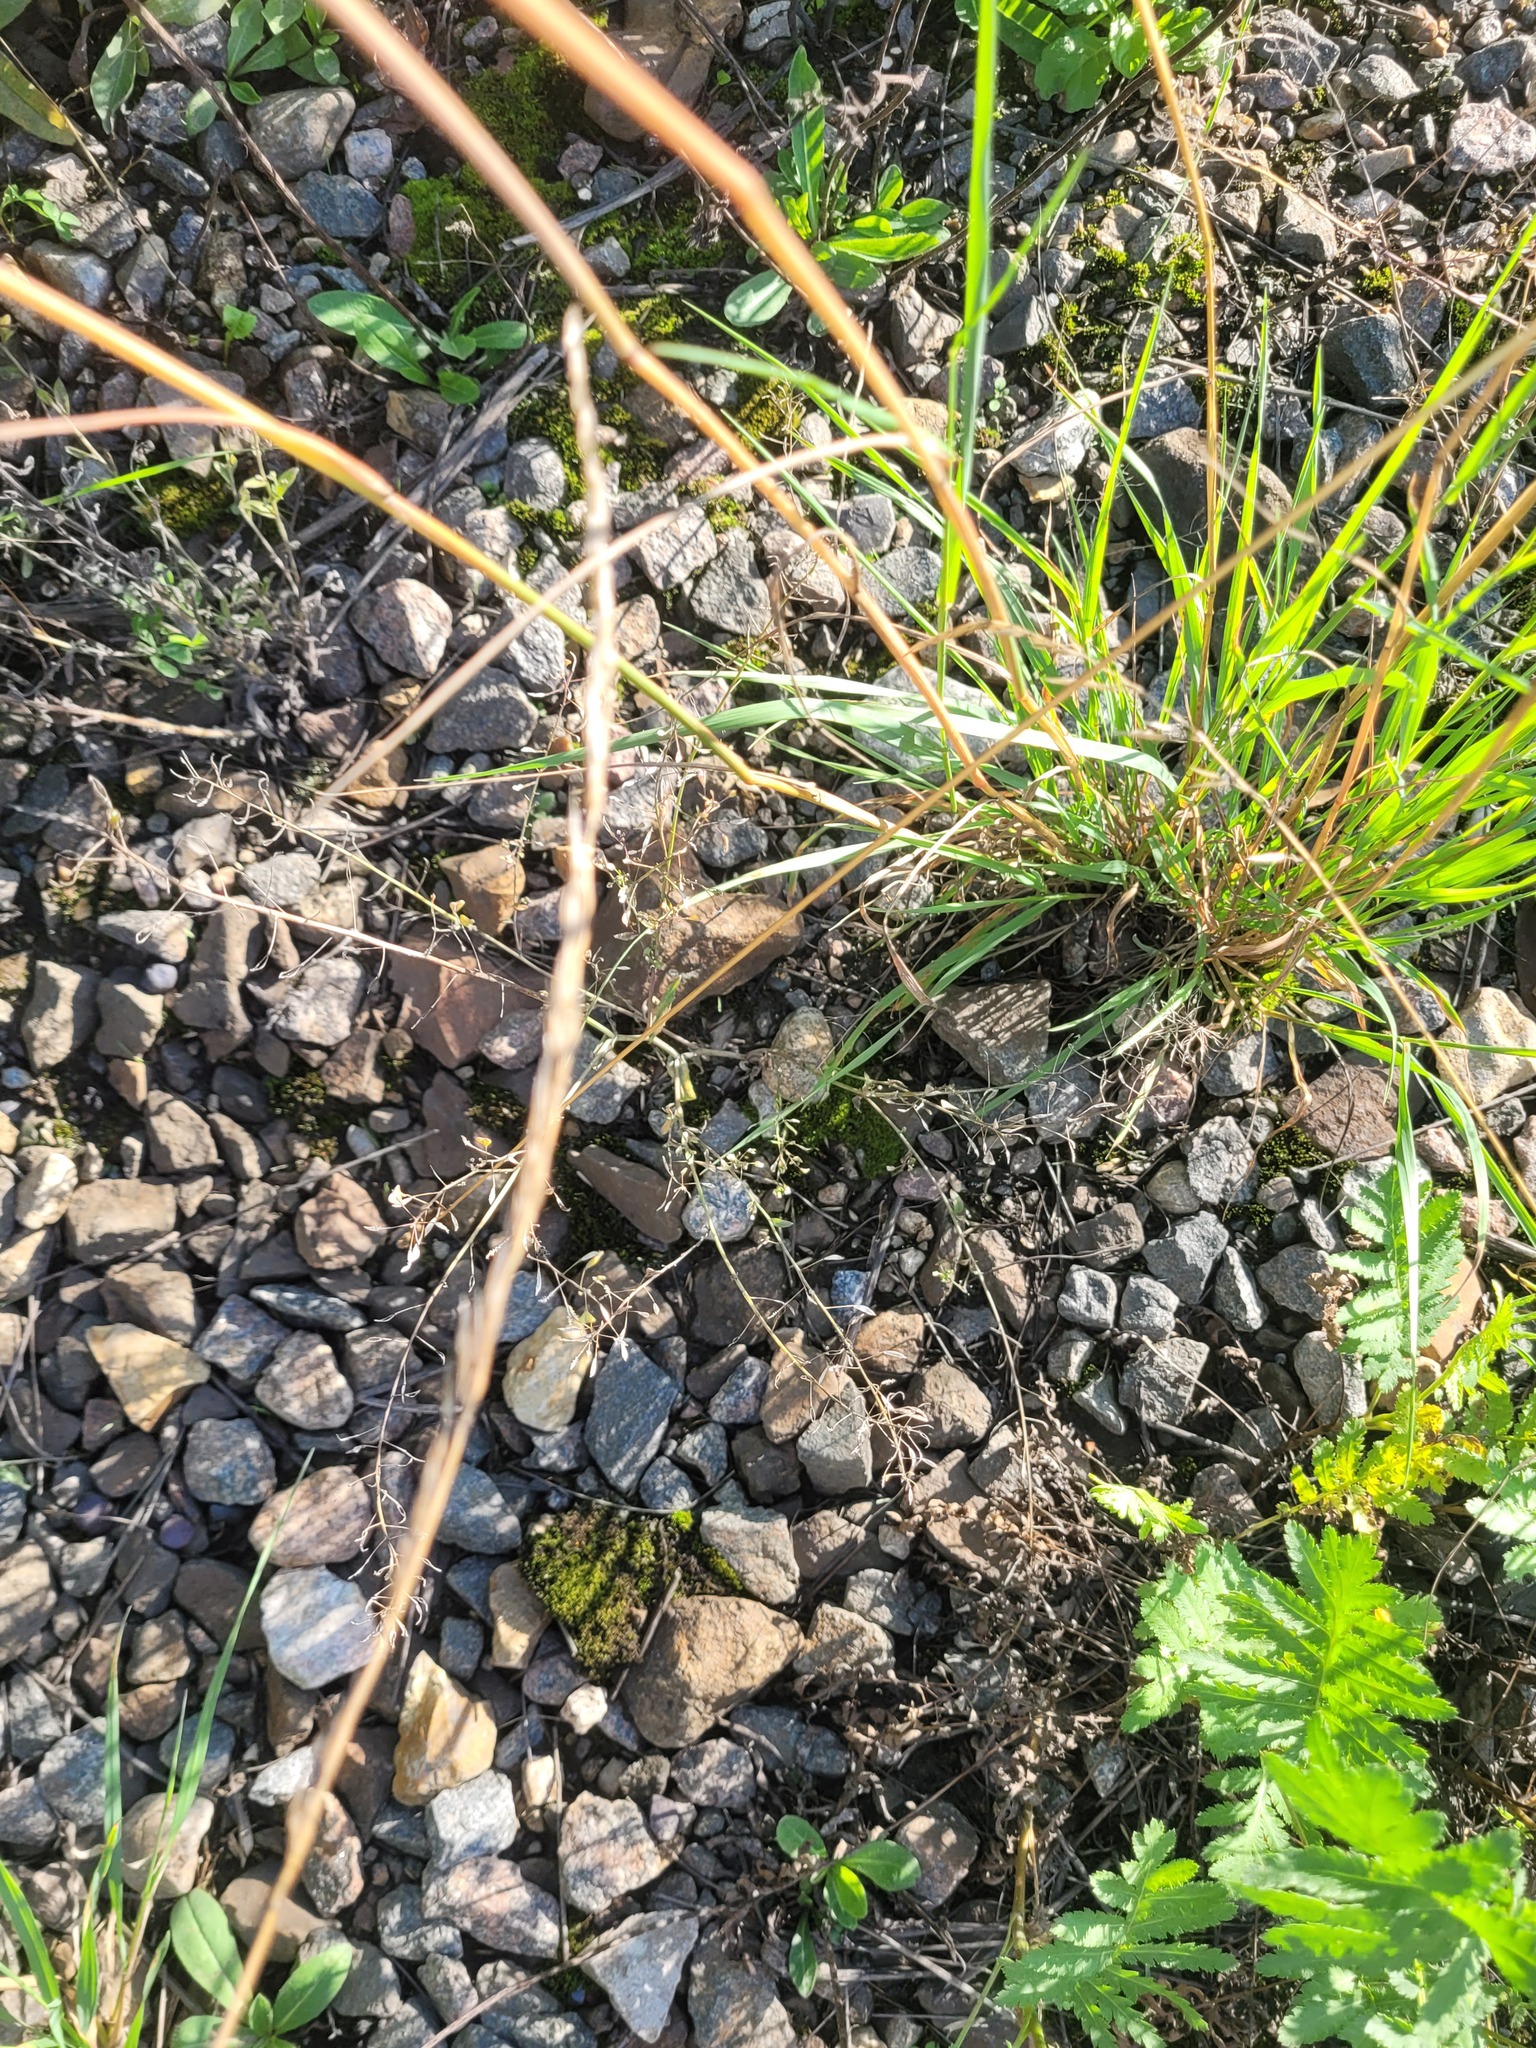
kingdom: Plantae
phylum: Tracheophyta
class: Magnoliopsida
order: Brassicales
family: Brassicaceae
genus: Capsella
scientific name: Capsella bursa-pastoris
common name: Shepherd's purse
